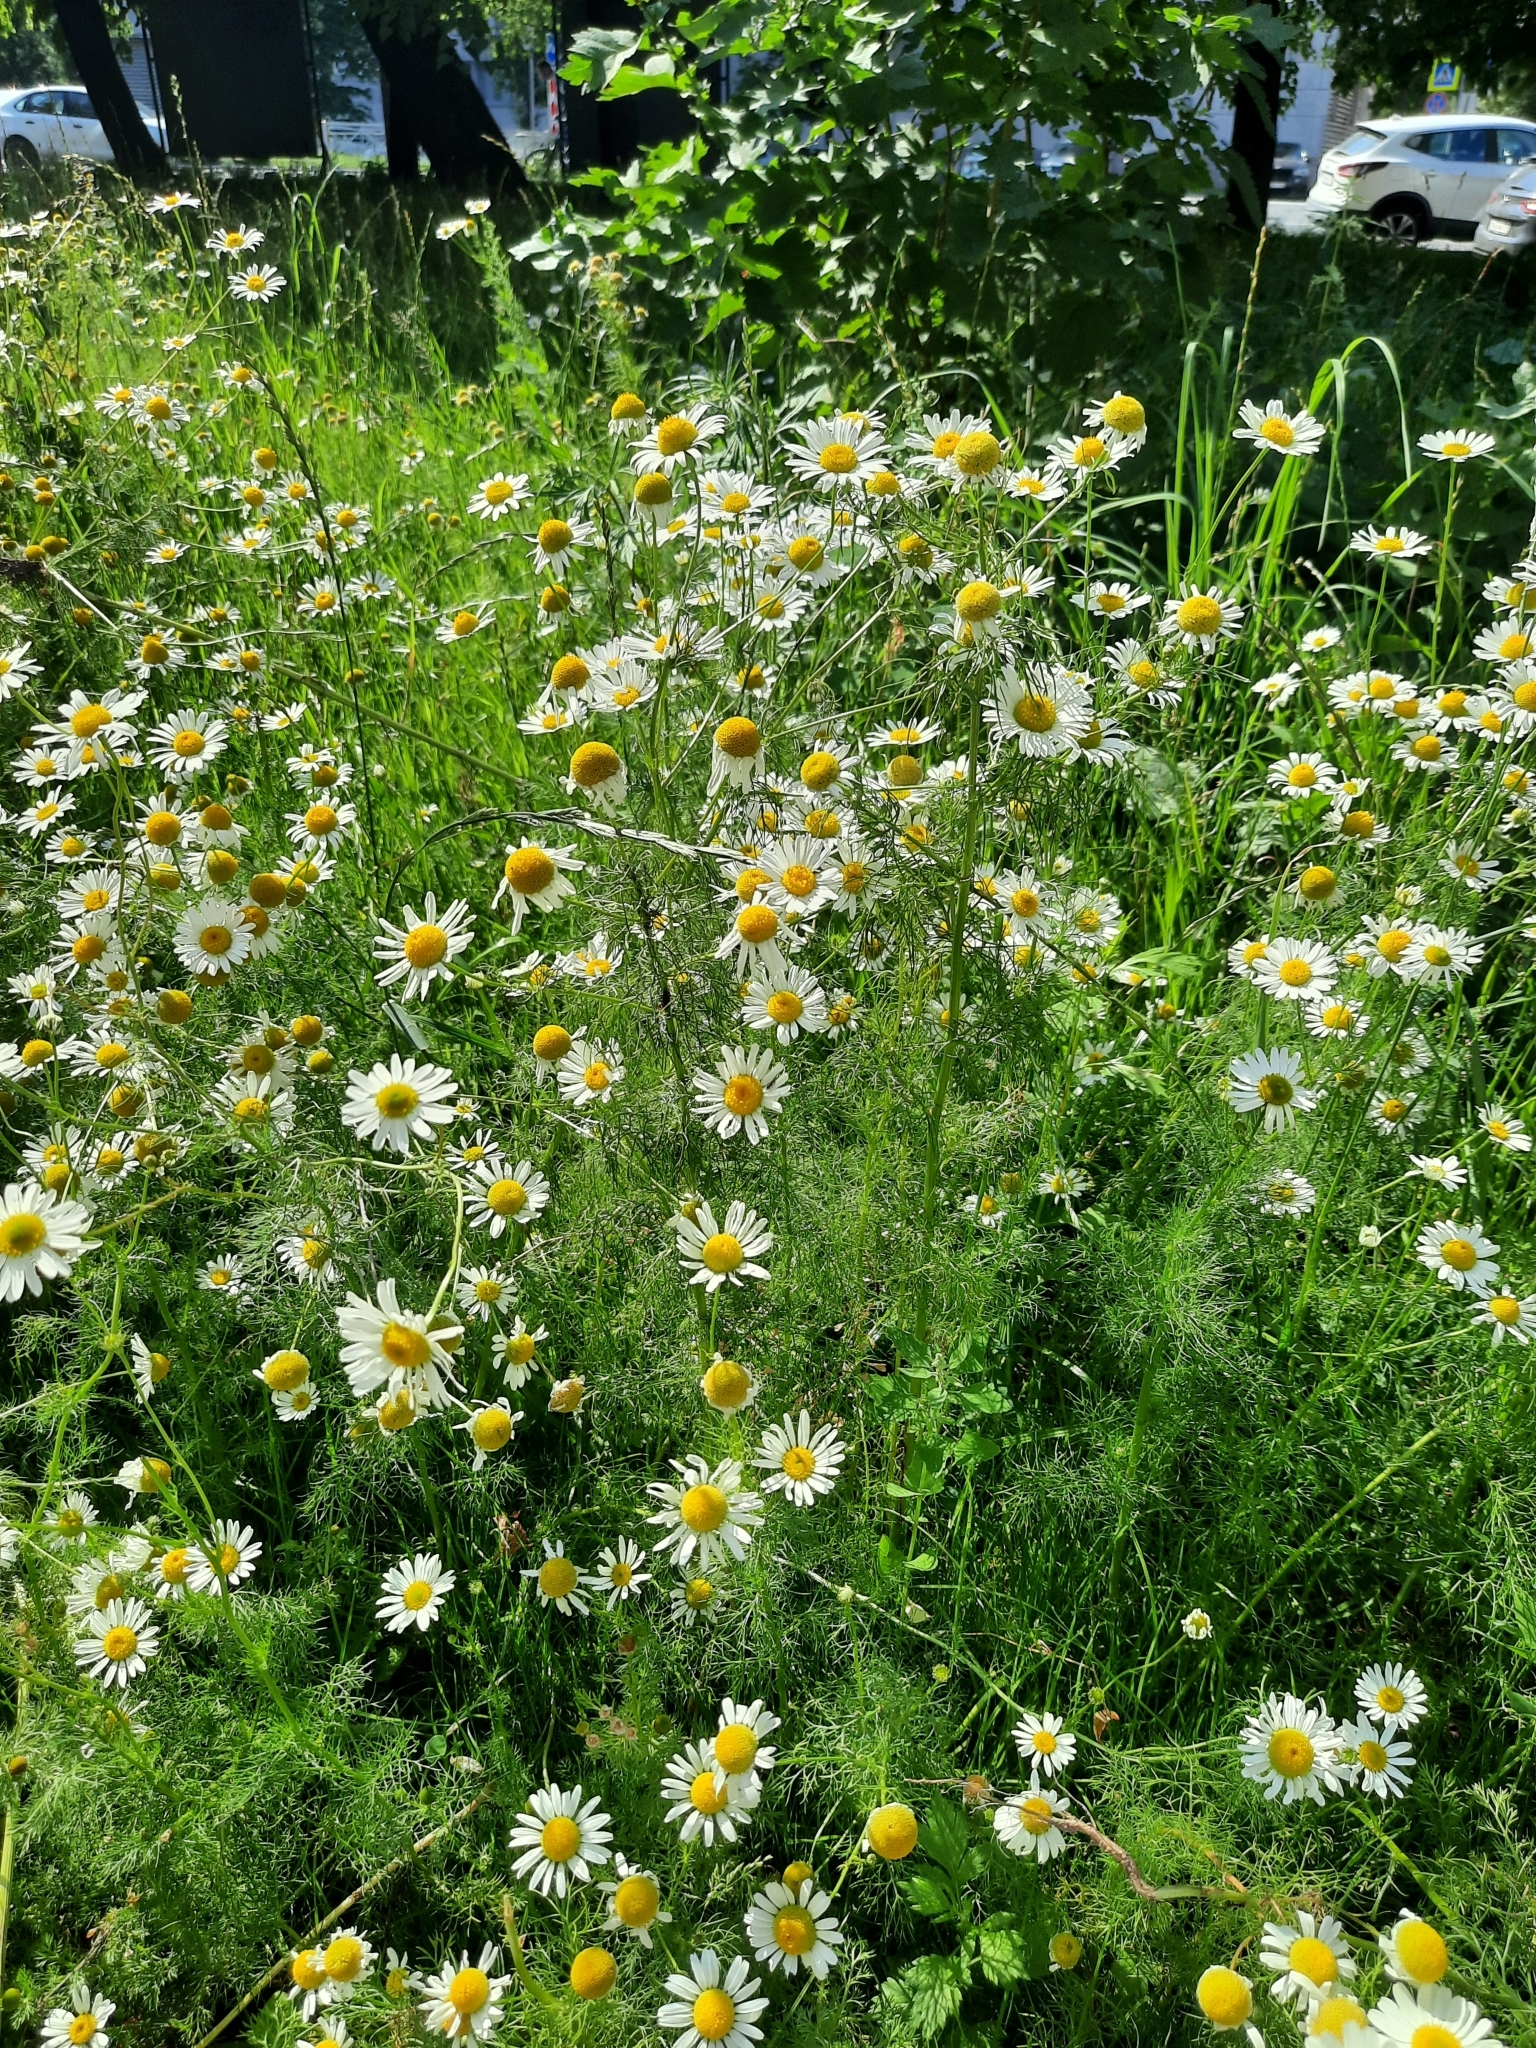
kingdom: Plantae
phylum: Tracheophyta
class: Magnoliopsida
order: Asterales
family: Asteraceae
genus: Tripleurospermum
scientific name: Tripleurospermum inodorum
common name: Scentless mayweed
